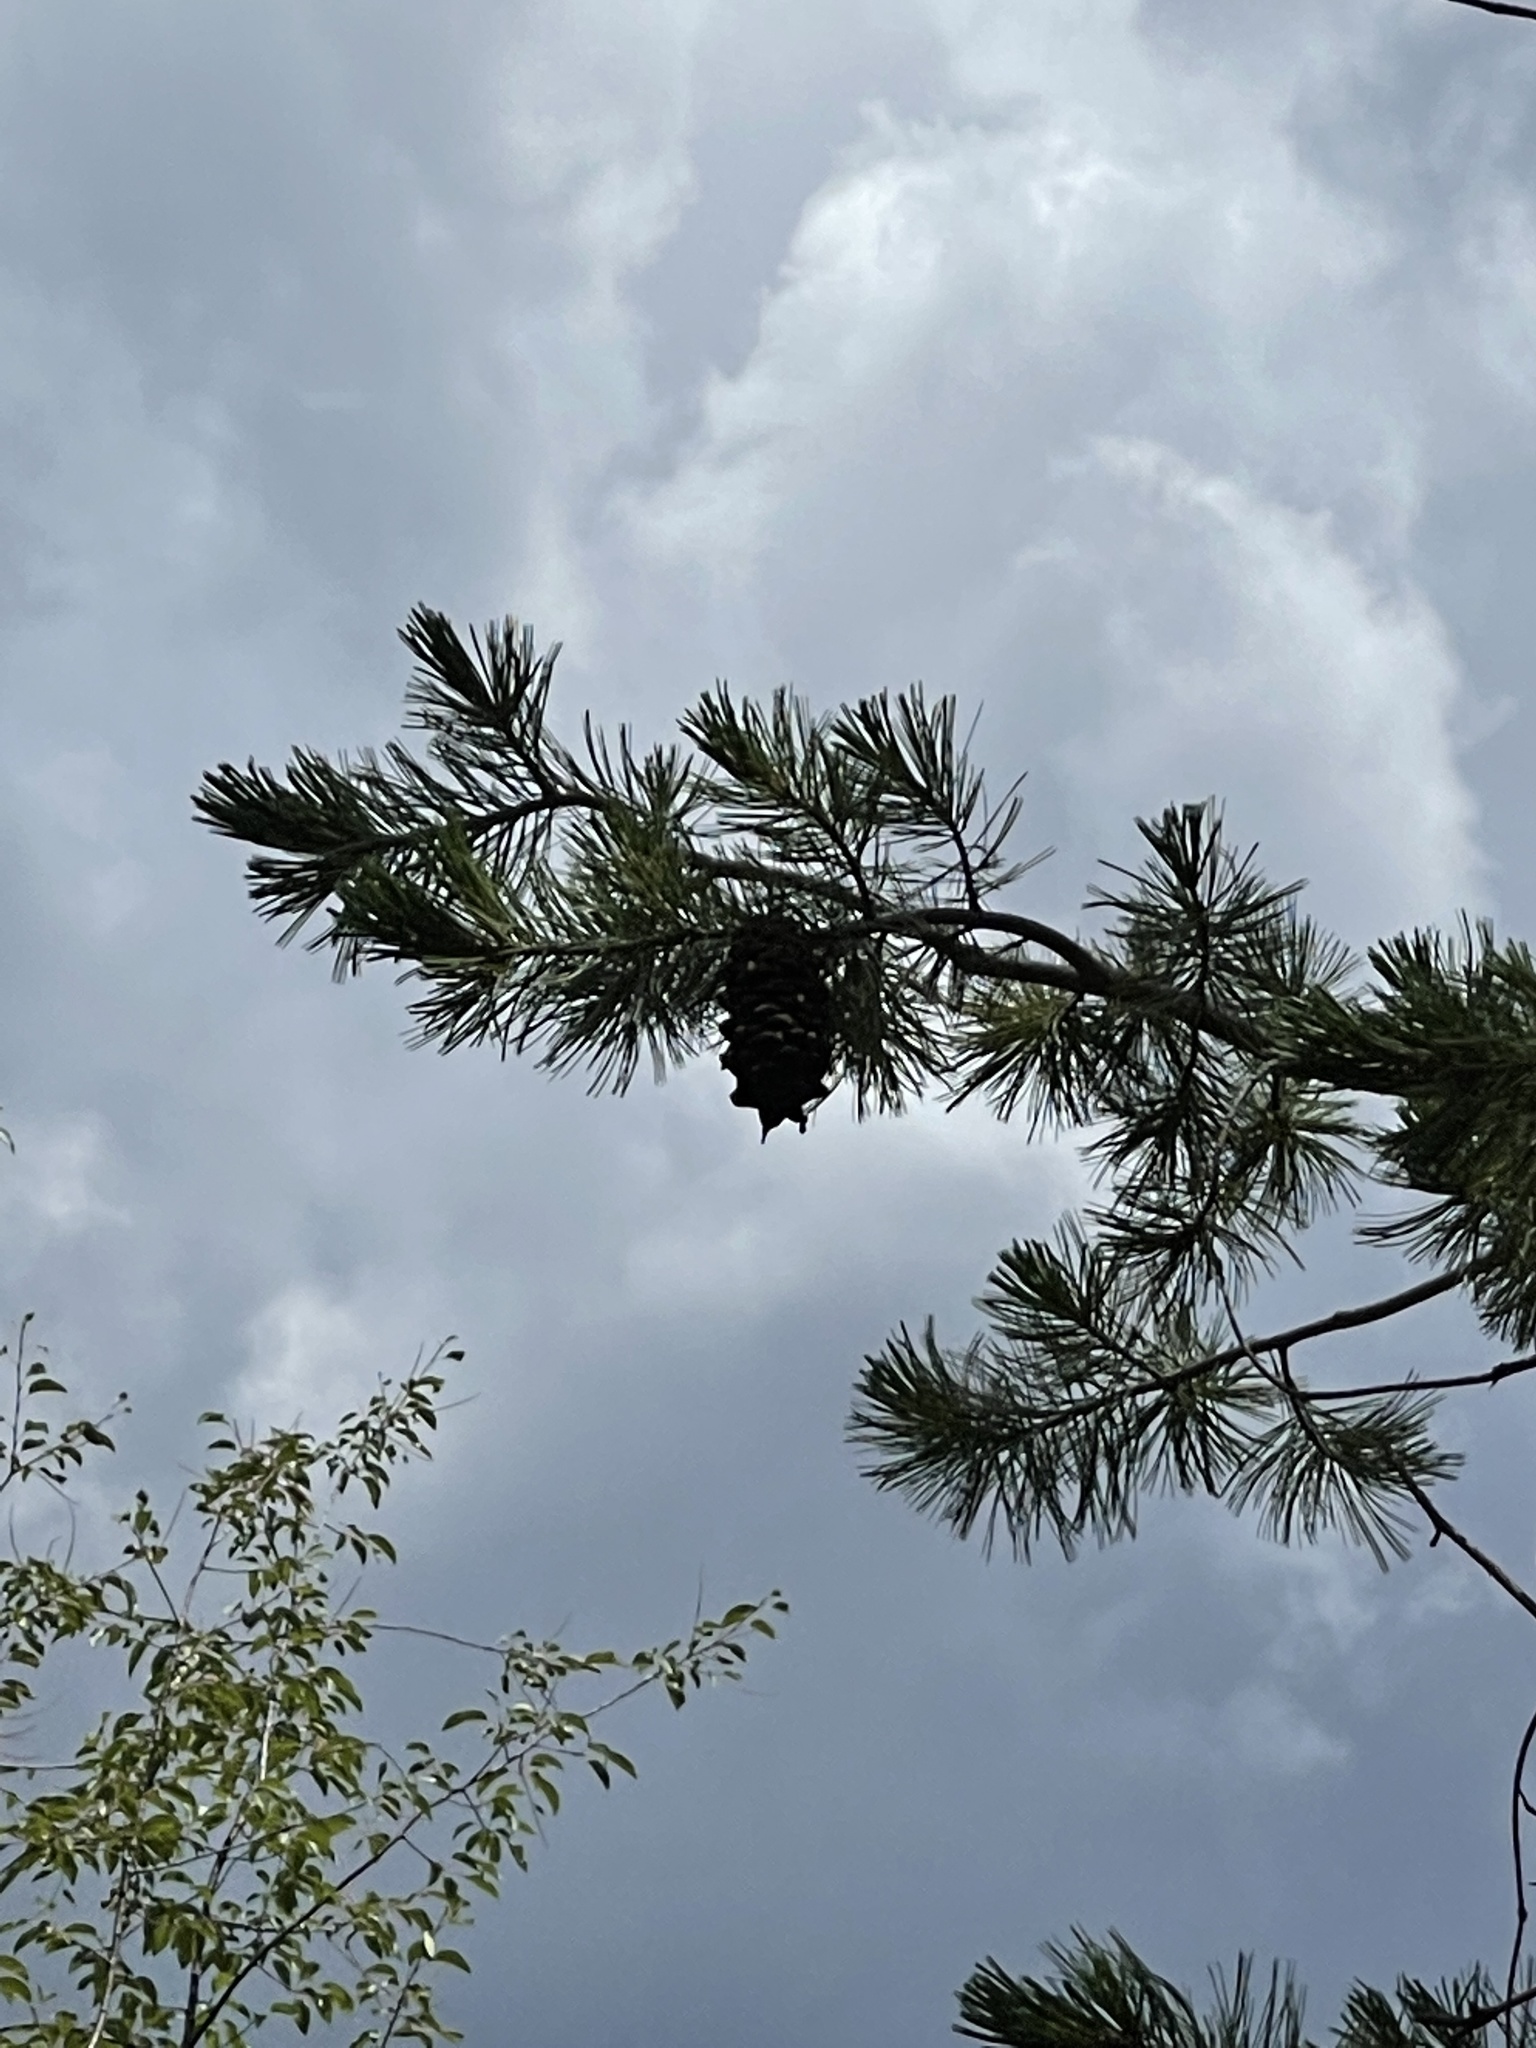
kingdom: Plantae
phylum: Tracheophyta
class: Pinopsida
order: Pinales
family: Pinaceae
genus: Pinus
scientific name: Pinus strobiformis
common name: Southwestern white pine
